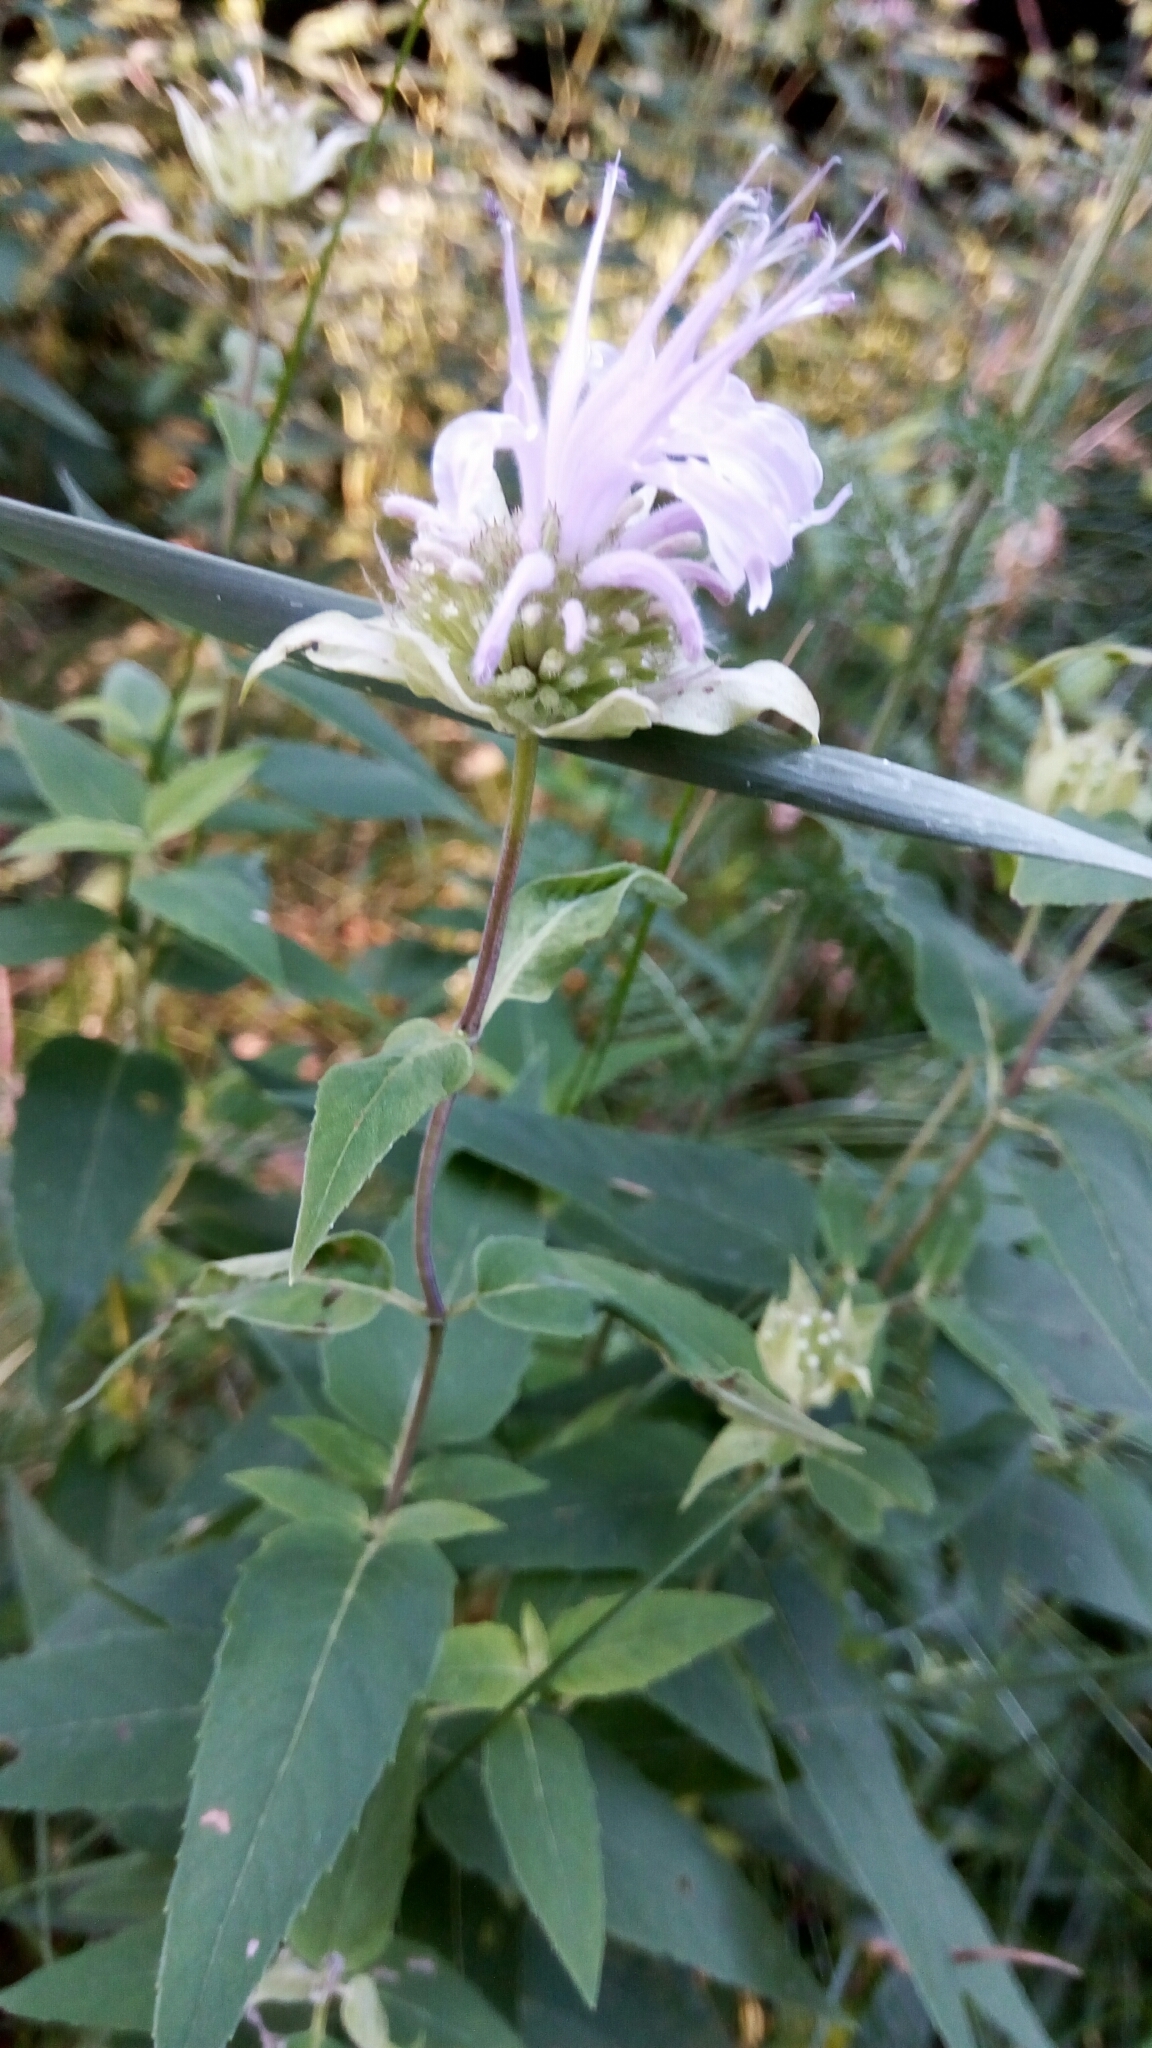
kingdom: Plantae
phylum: Tracheophyta
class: Magnoliopsida
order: Lamiales
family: Lamiaceae
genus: Monarda
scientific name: Monarda fistulosa
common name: Purple beebalm
